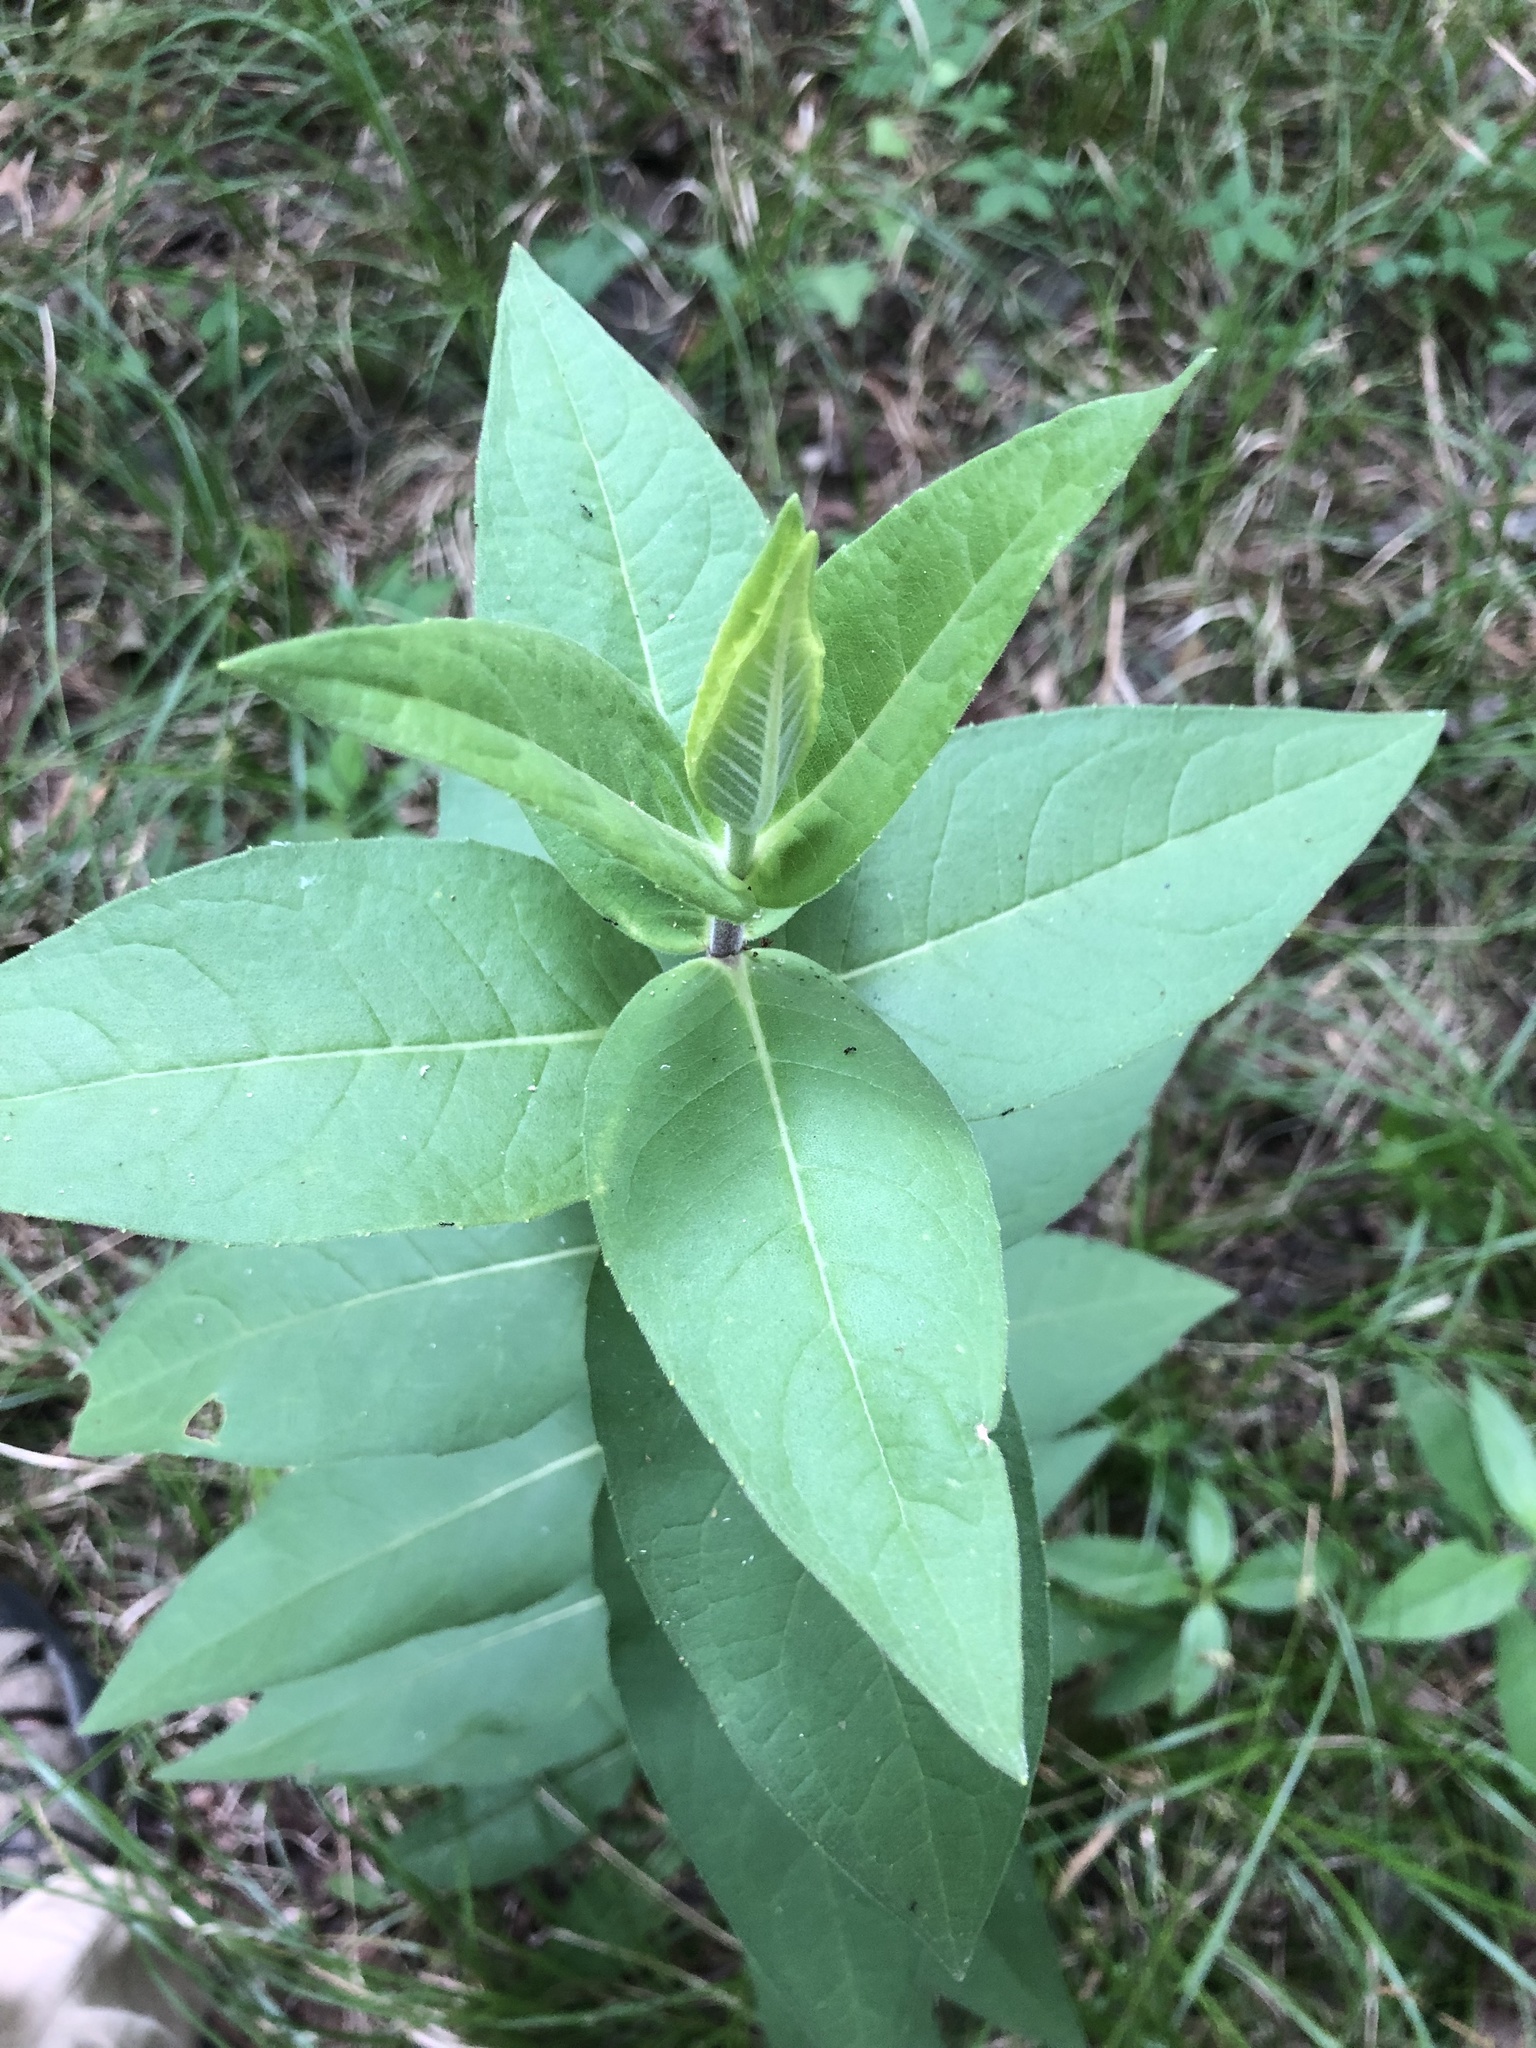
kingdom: Plantae
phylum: Tracheophyta
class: Magnoliopsida
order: Asterales
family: Asteraceae
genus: Silphium
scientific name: Silphium integrifolium
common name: Whole-leaf rosinweed
